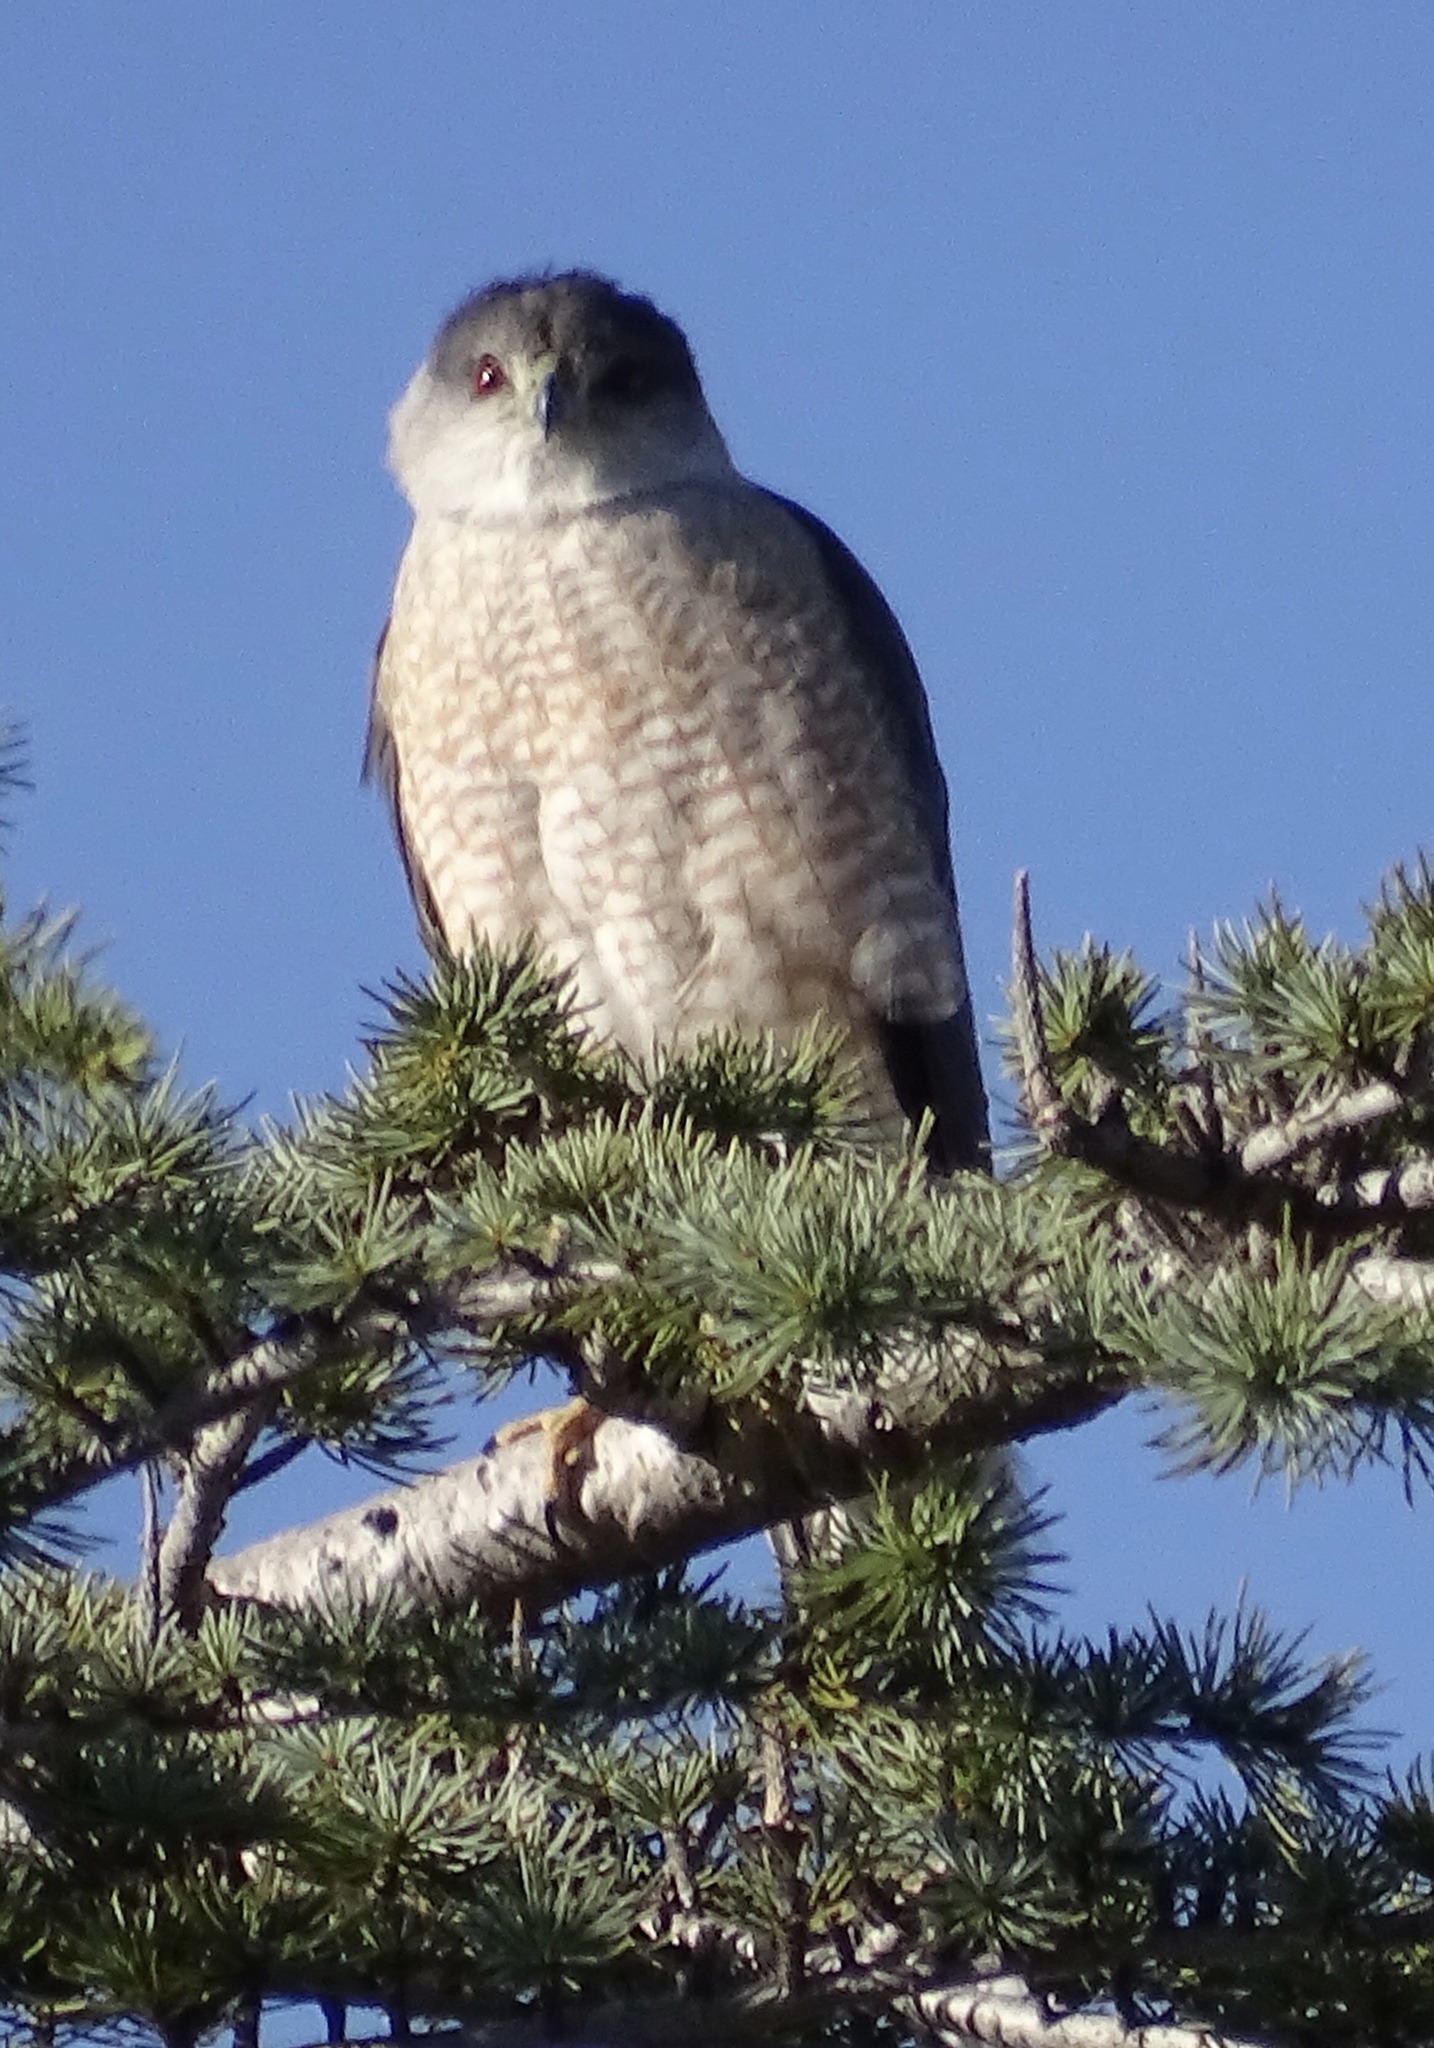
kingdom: Animalia
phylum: Chordata
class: Aves
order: Accipitriformes
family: Accipitridae
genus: Accipiter
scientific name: Accipiter cooperii
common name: Cooper's hawk
